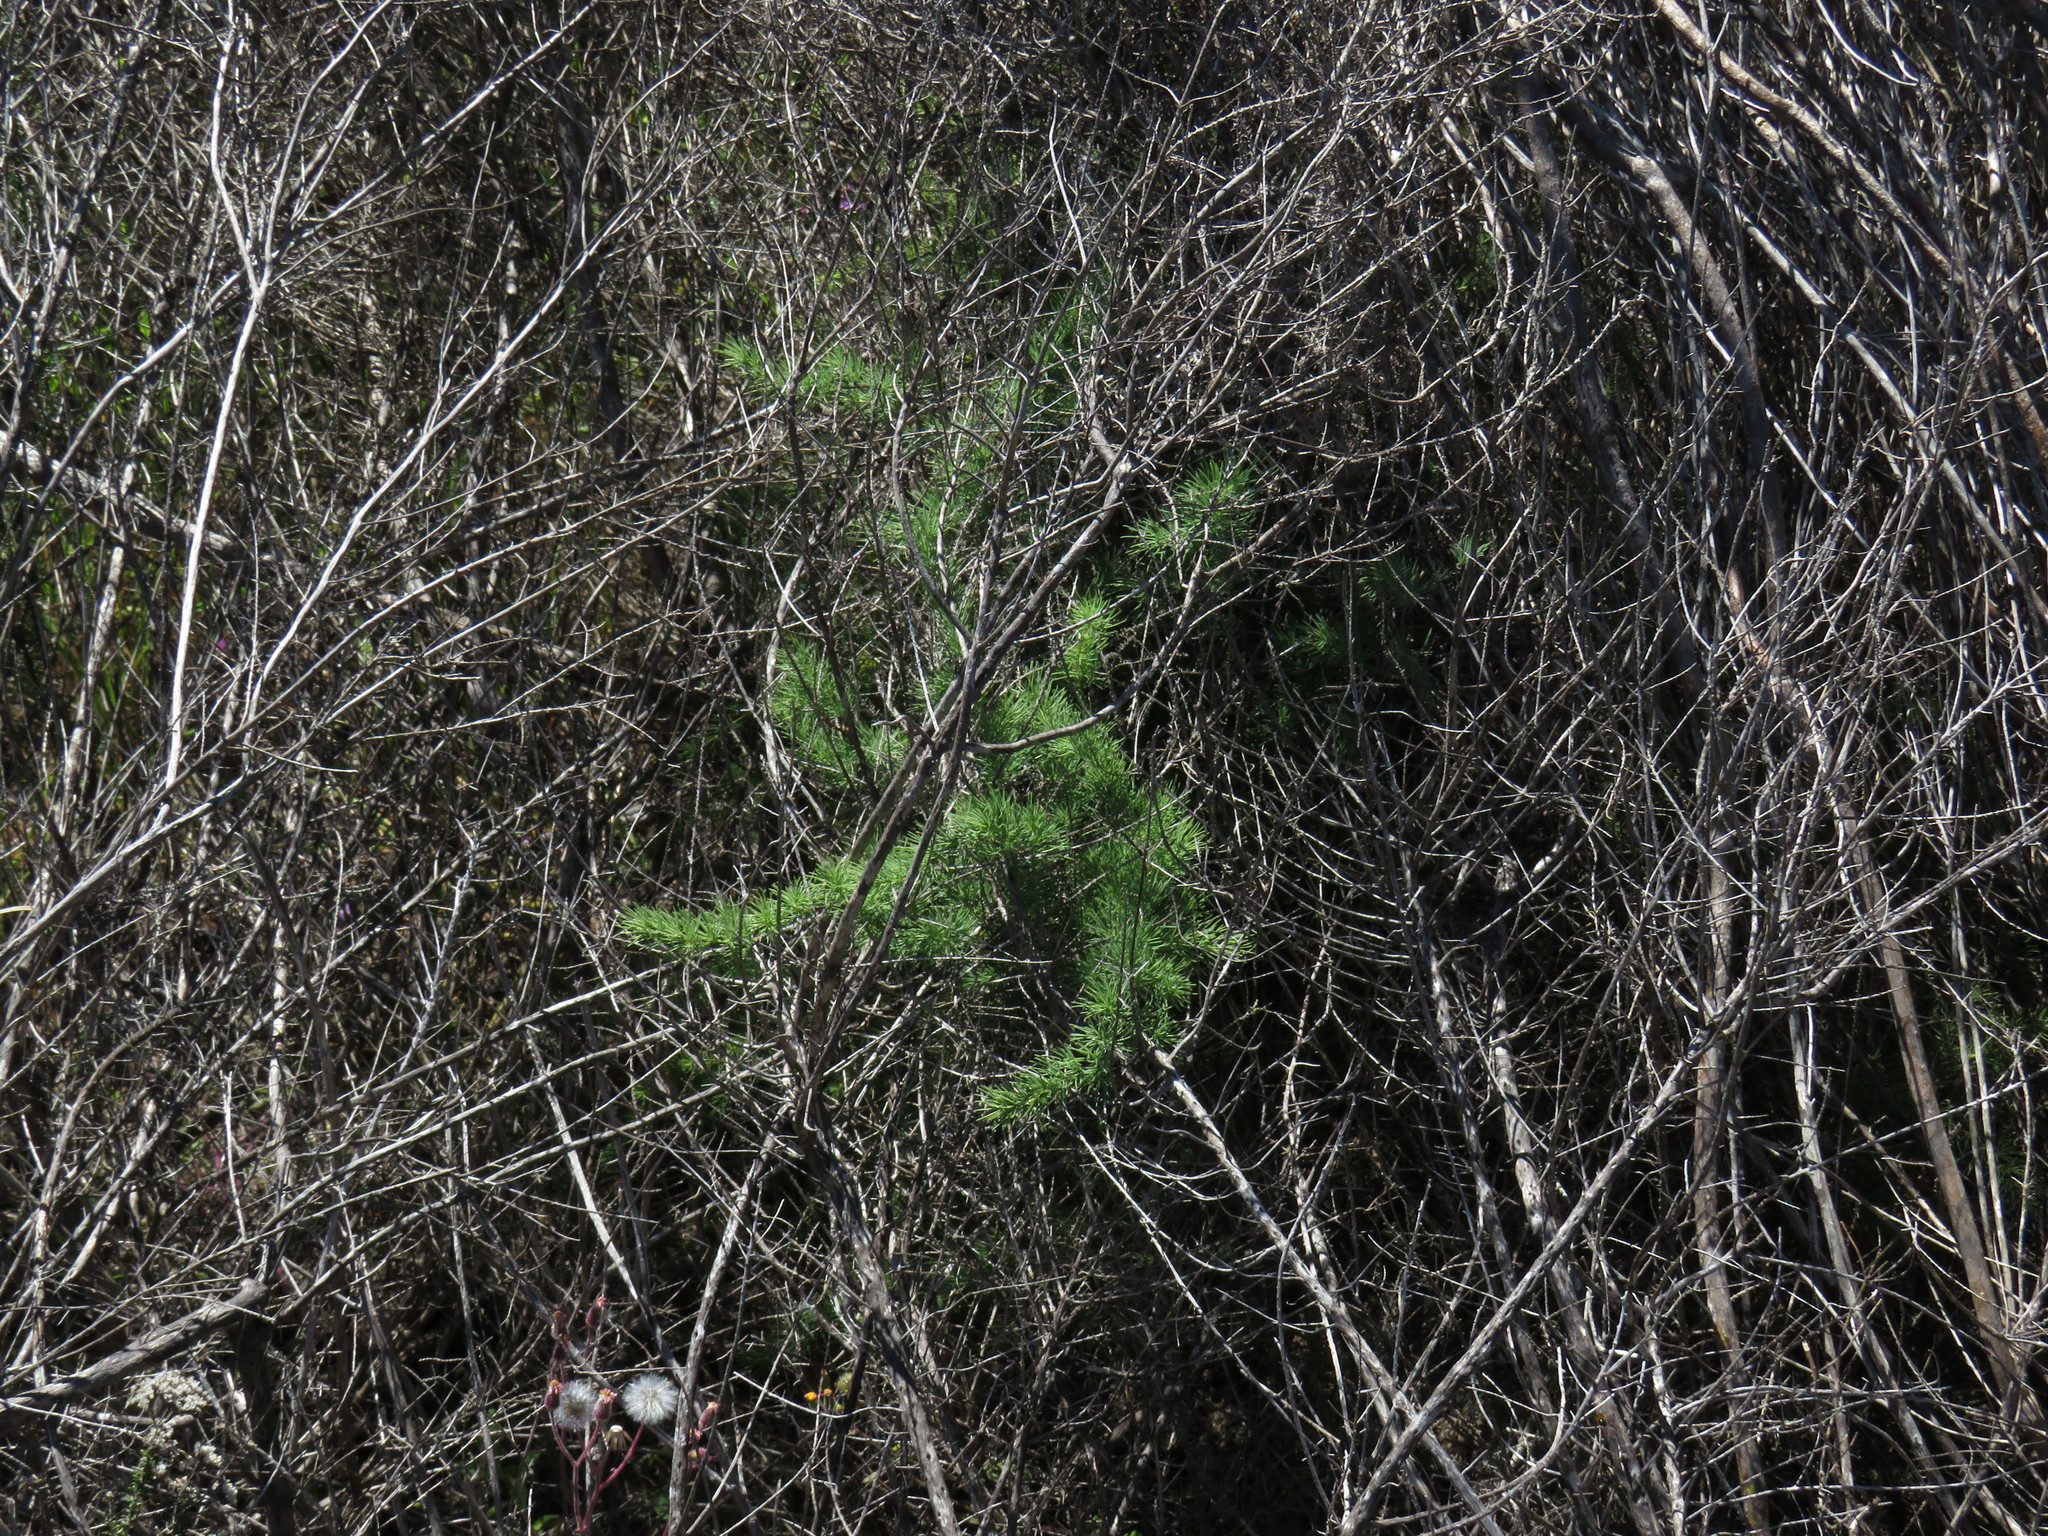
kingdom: Plantae
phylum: Tracheophyta
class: Liliopsida
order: Asparagales
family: Asparagaceae
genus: Asparagus
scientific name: Asparagus rubicundus
